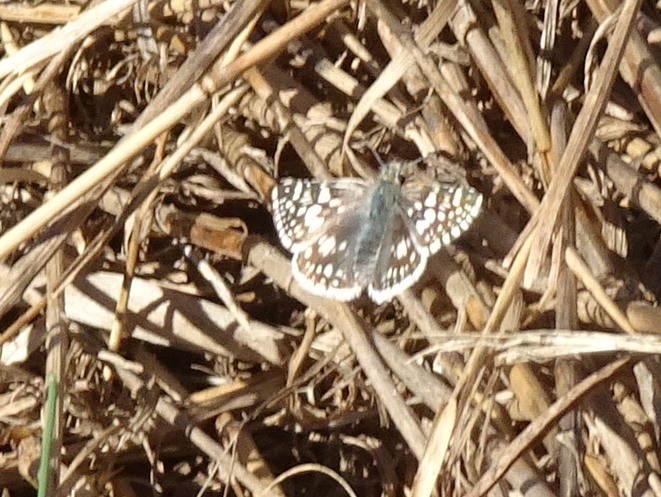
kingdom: Animalia
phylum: Arthropoda
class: Insecta
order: Lepidoptera
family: Hesperiidae
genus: Burnsius
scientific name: Burnsius communis
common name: Common checkered-skipper
